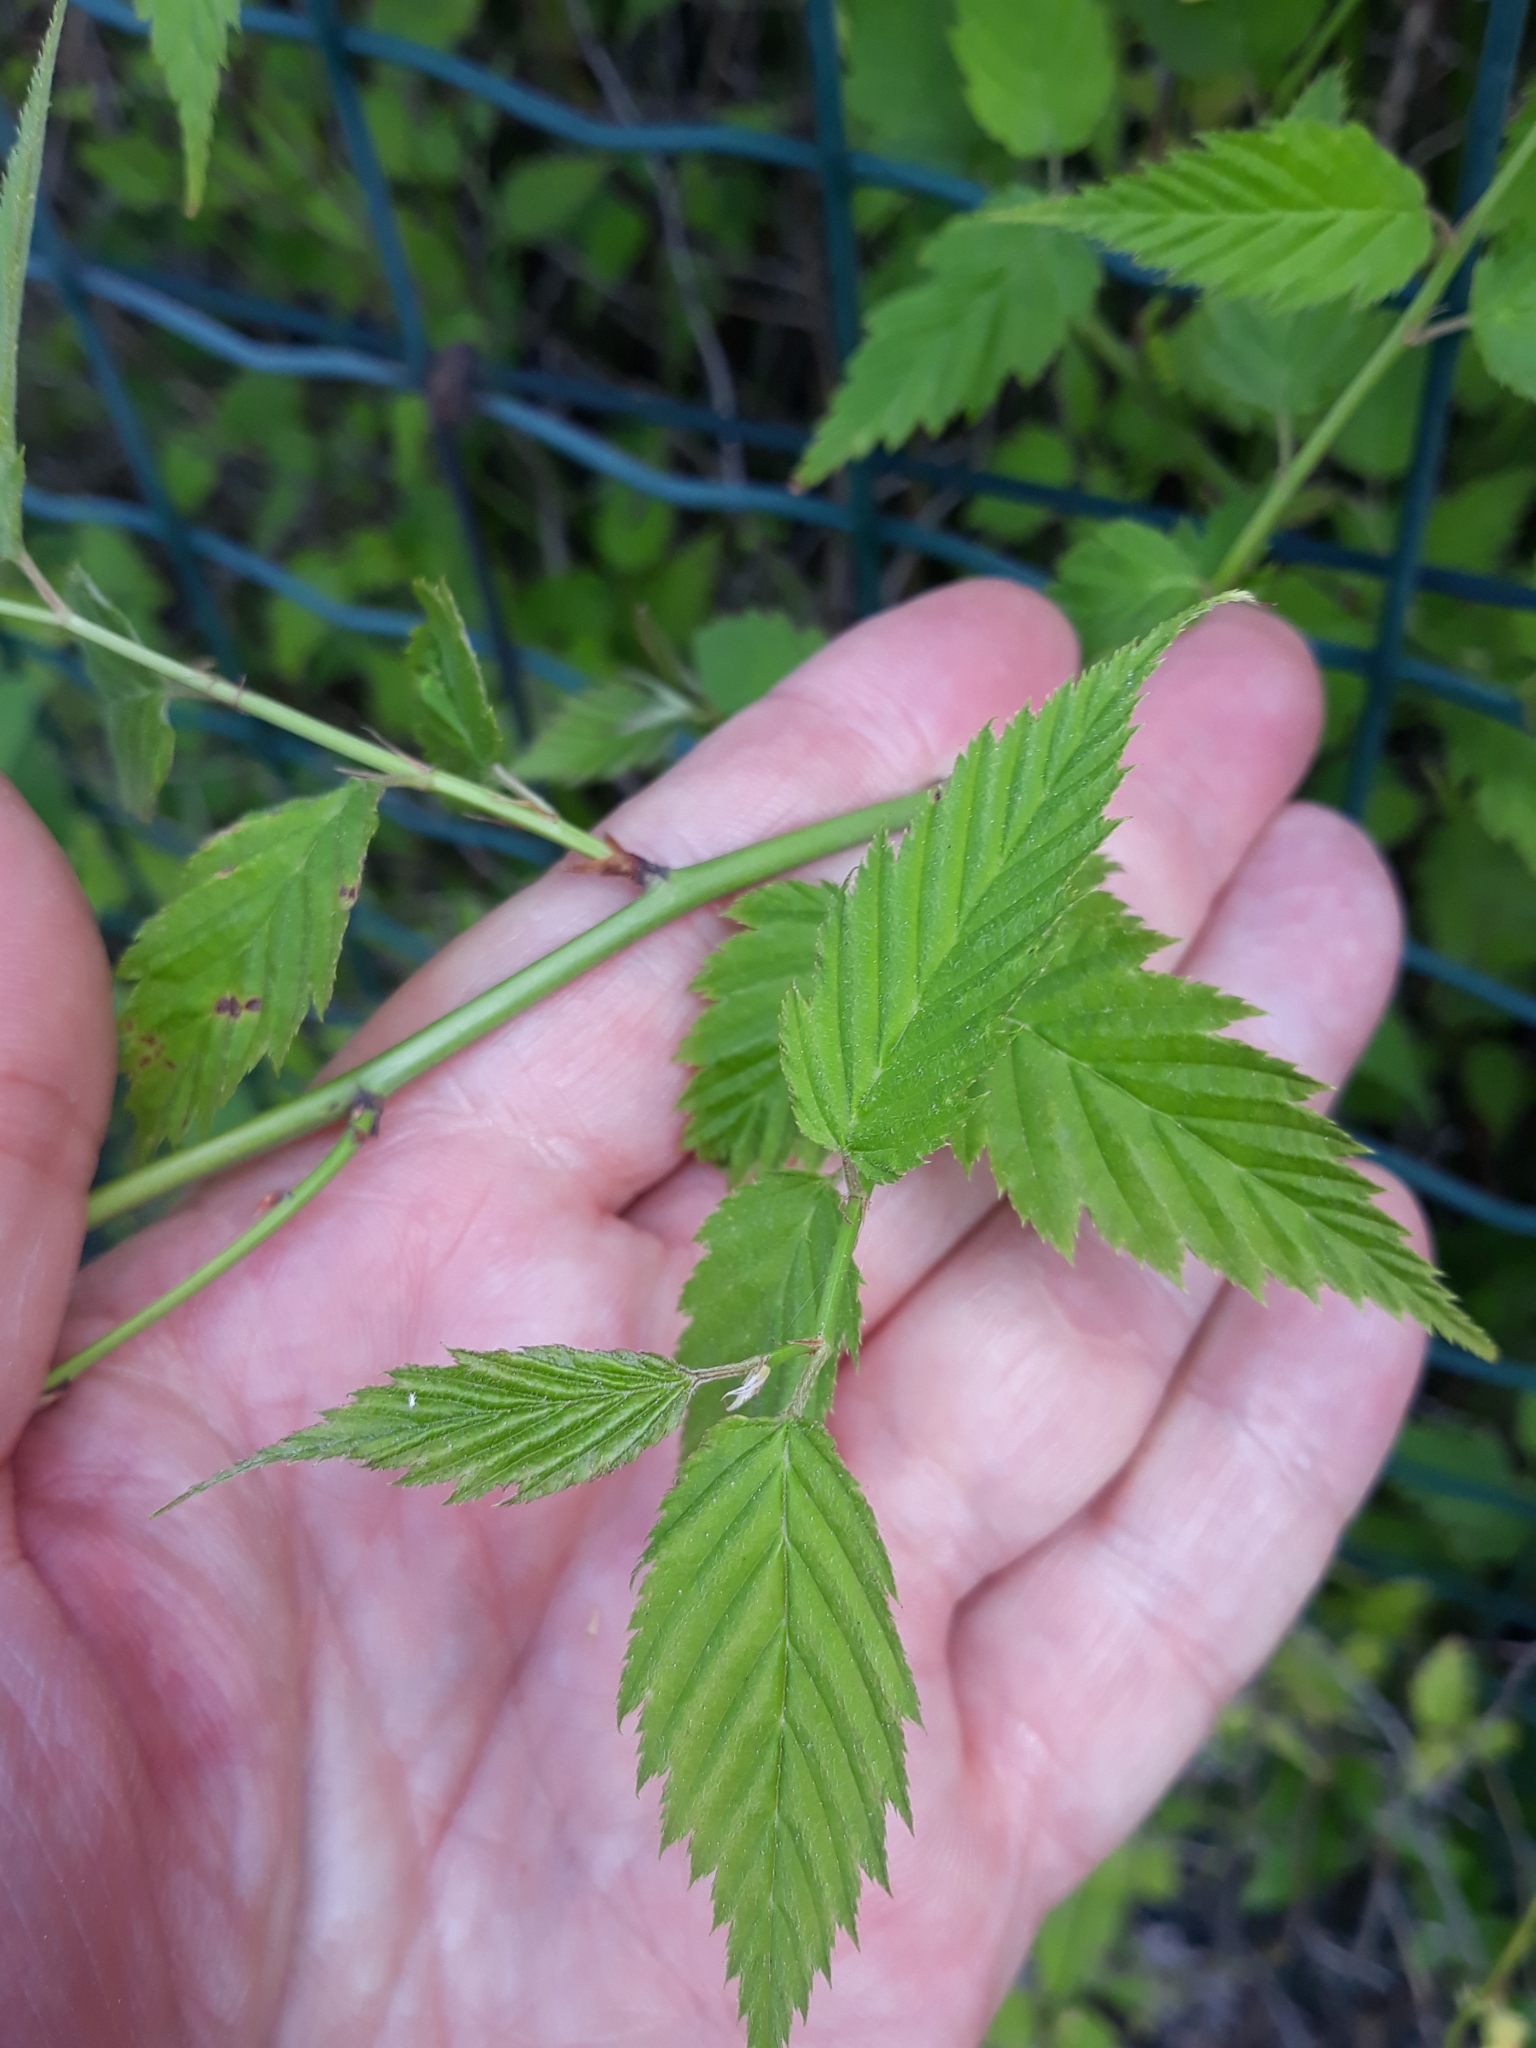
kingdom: Plantae
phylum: Tracheophyta
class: Magnoliopsida
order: Rosales
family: Rosaceae
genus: Kerria
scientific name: Kerria japonica
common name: Japanese kerria
